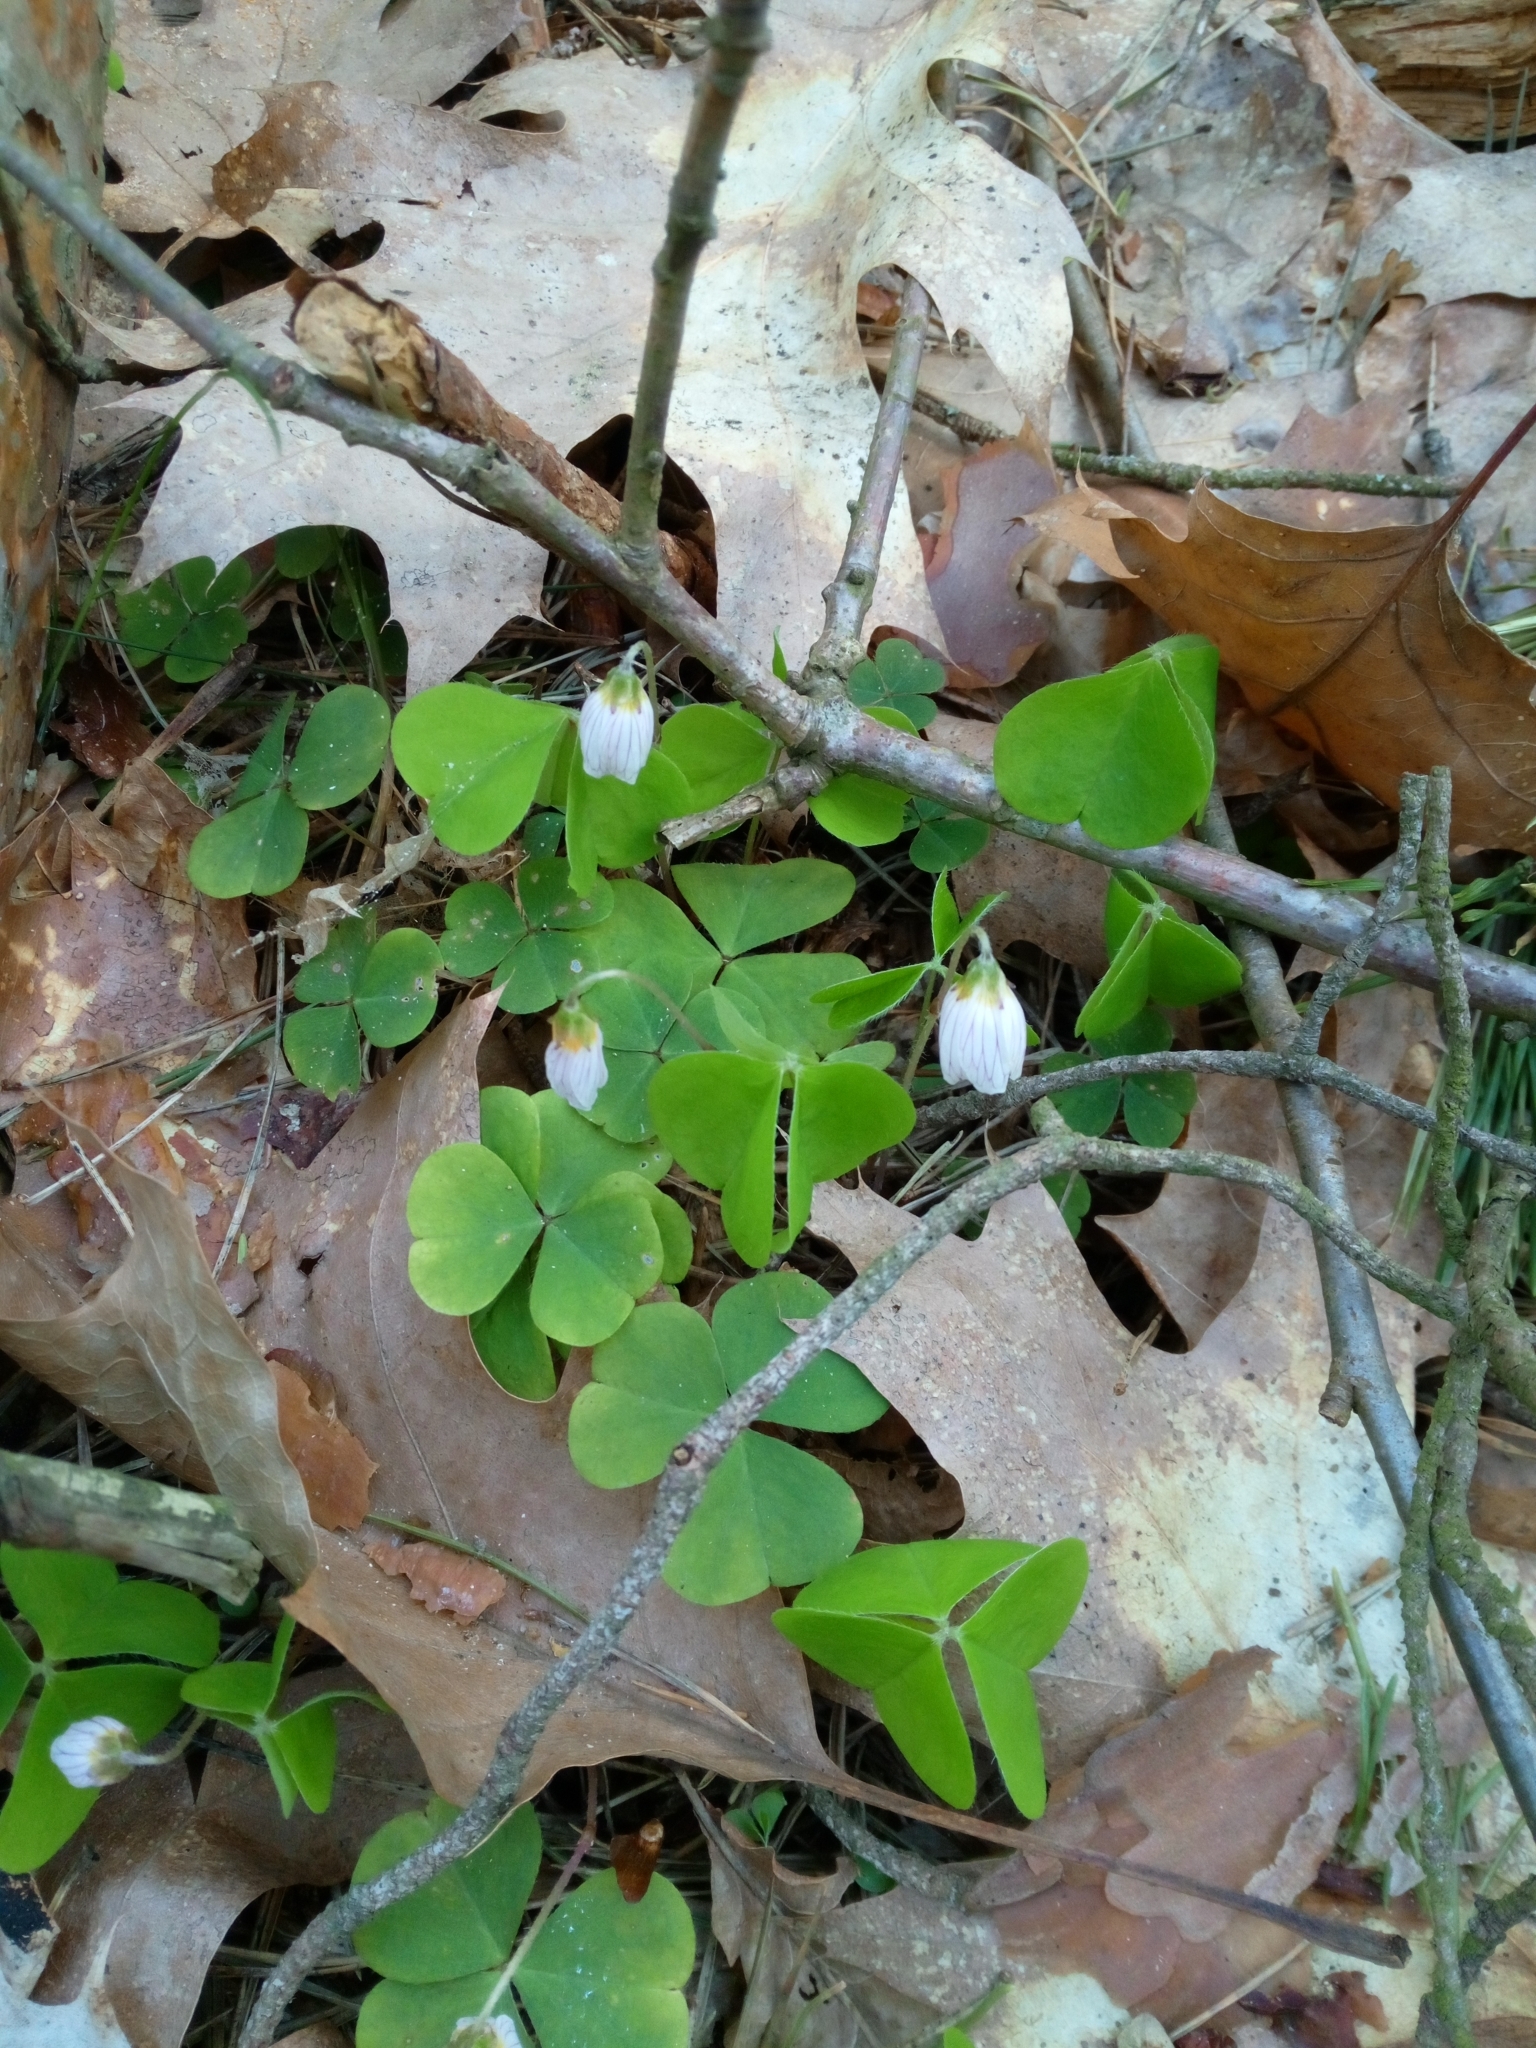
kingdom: Plantae
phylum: Tracheophyta
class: Magnoliopsida
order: Oxalidales
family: Oxalidaceae
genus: Oxalis
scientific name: Oxalis acetosella
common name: Wood-sorrel
